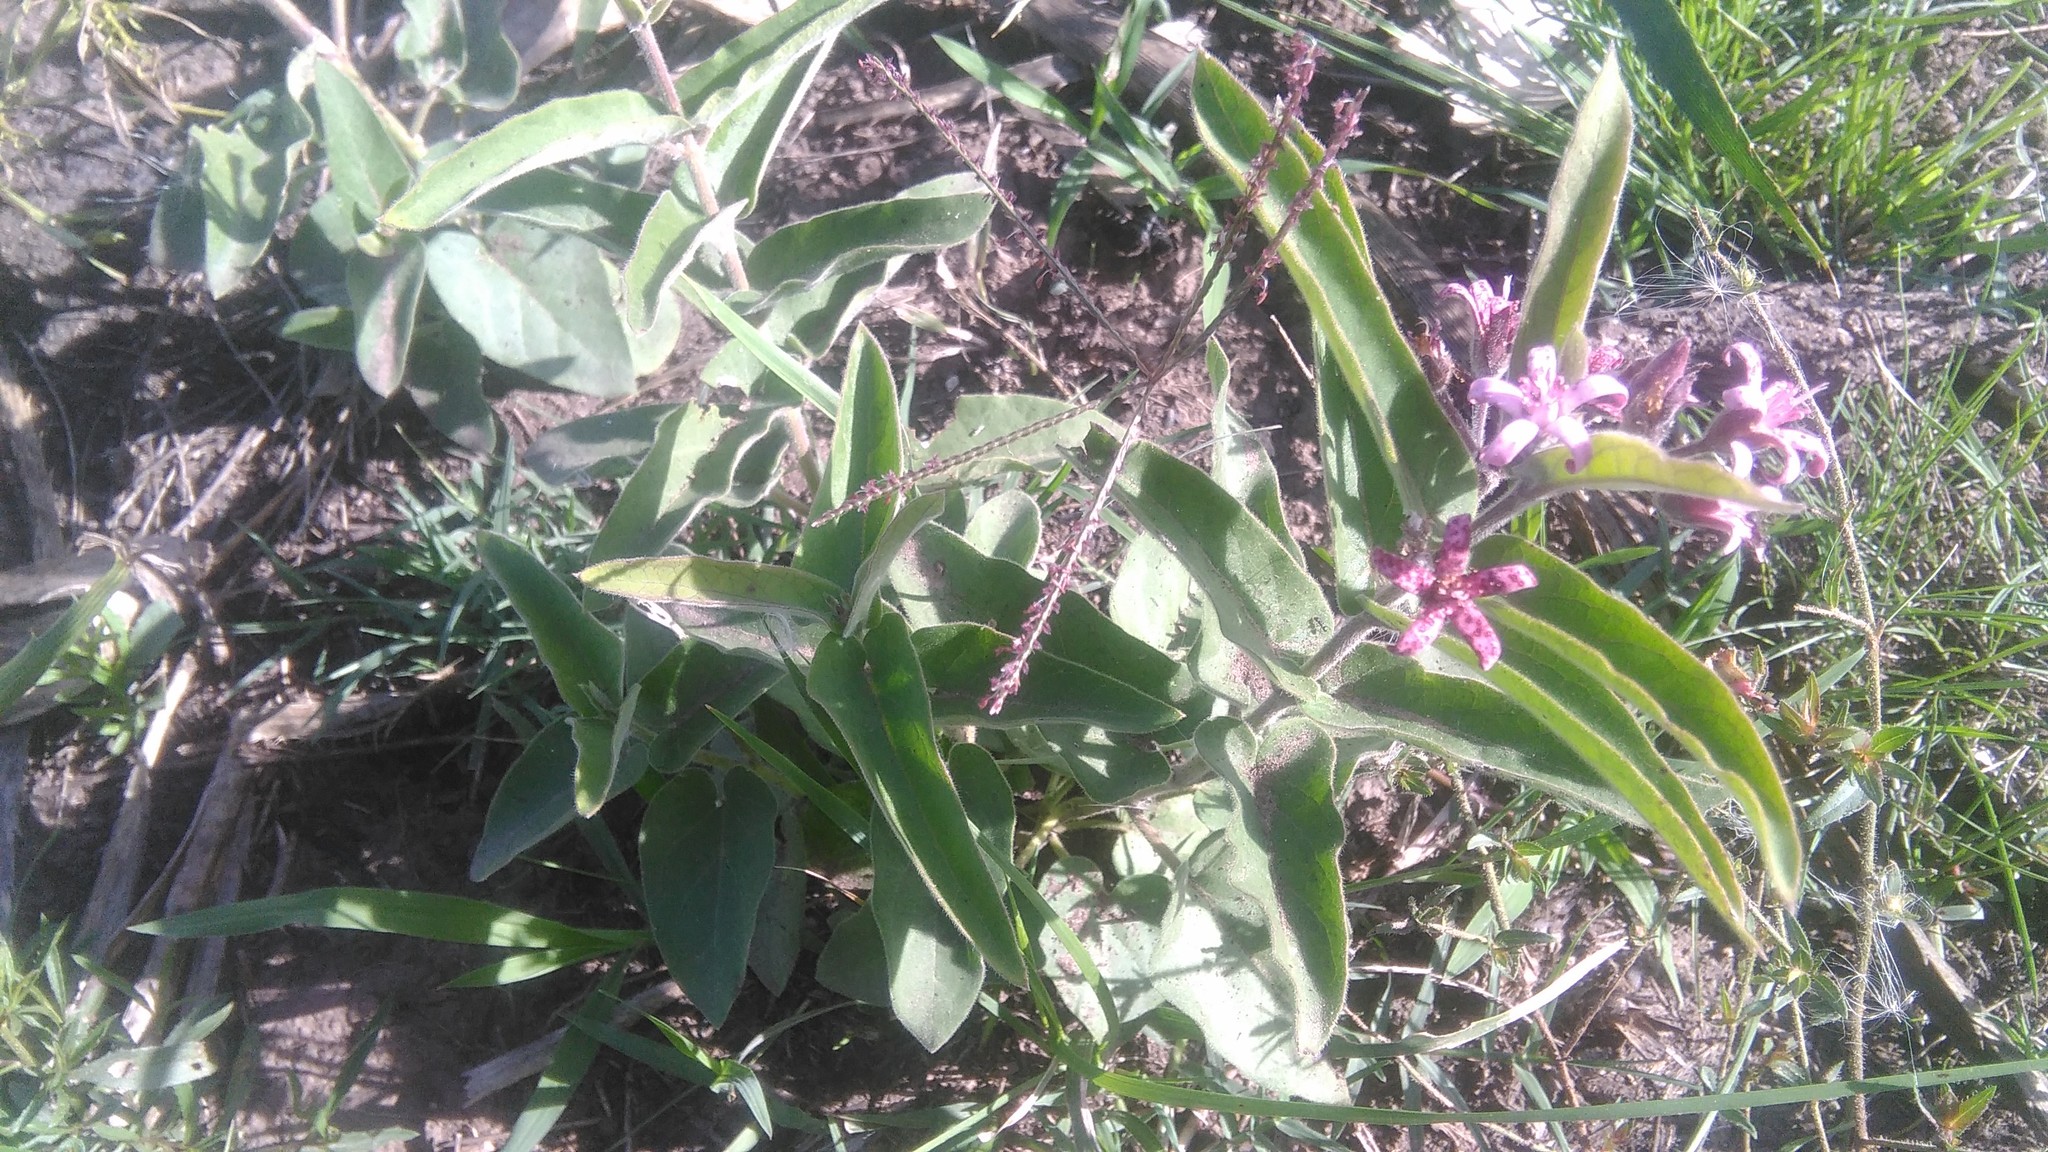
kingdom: Plantae
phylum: Tracheophyta
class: Magnoliopsida
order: Gentianales
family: Apocynaceae
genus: Oxypetalum
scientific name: Oxypetalum solanoides
